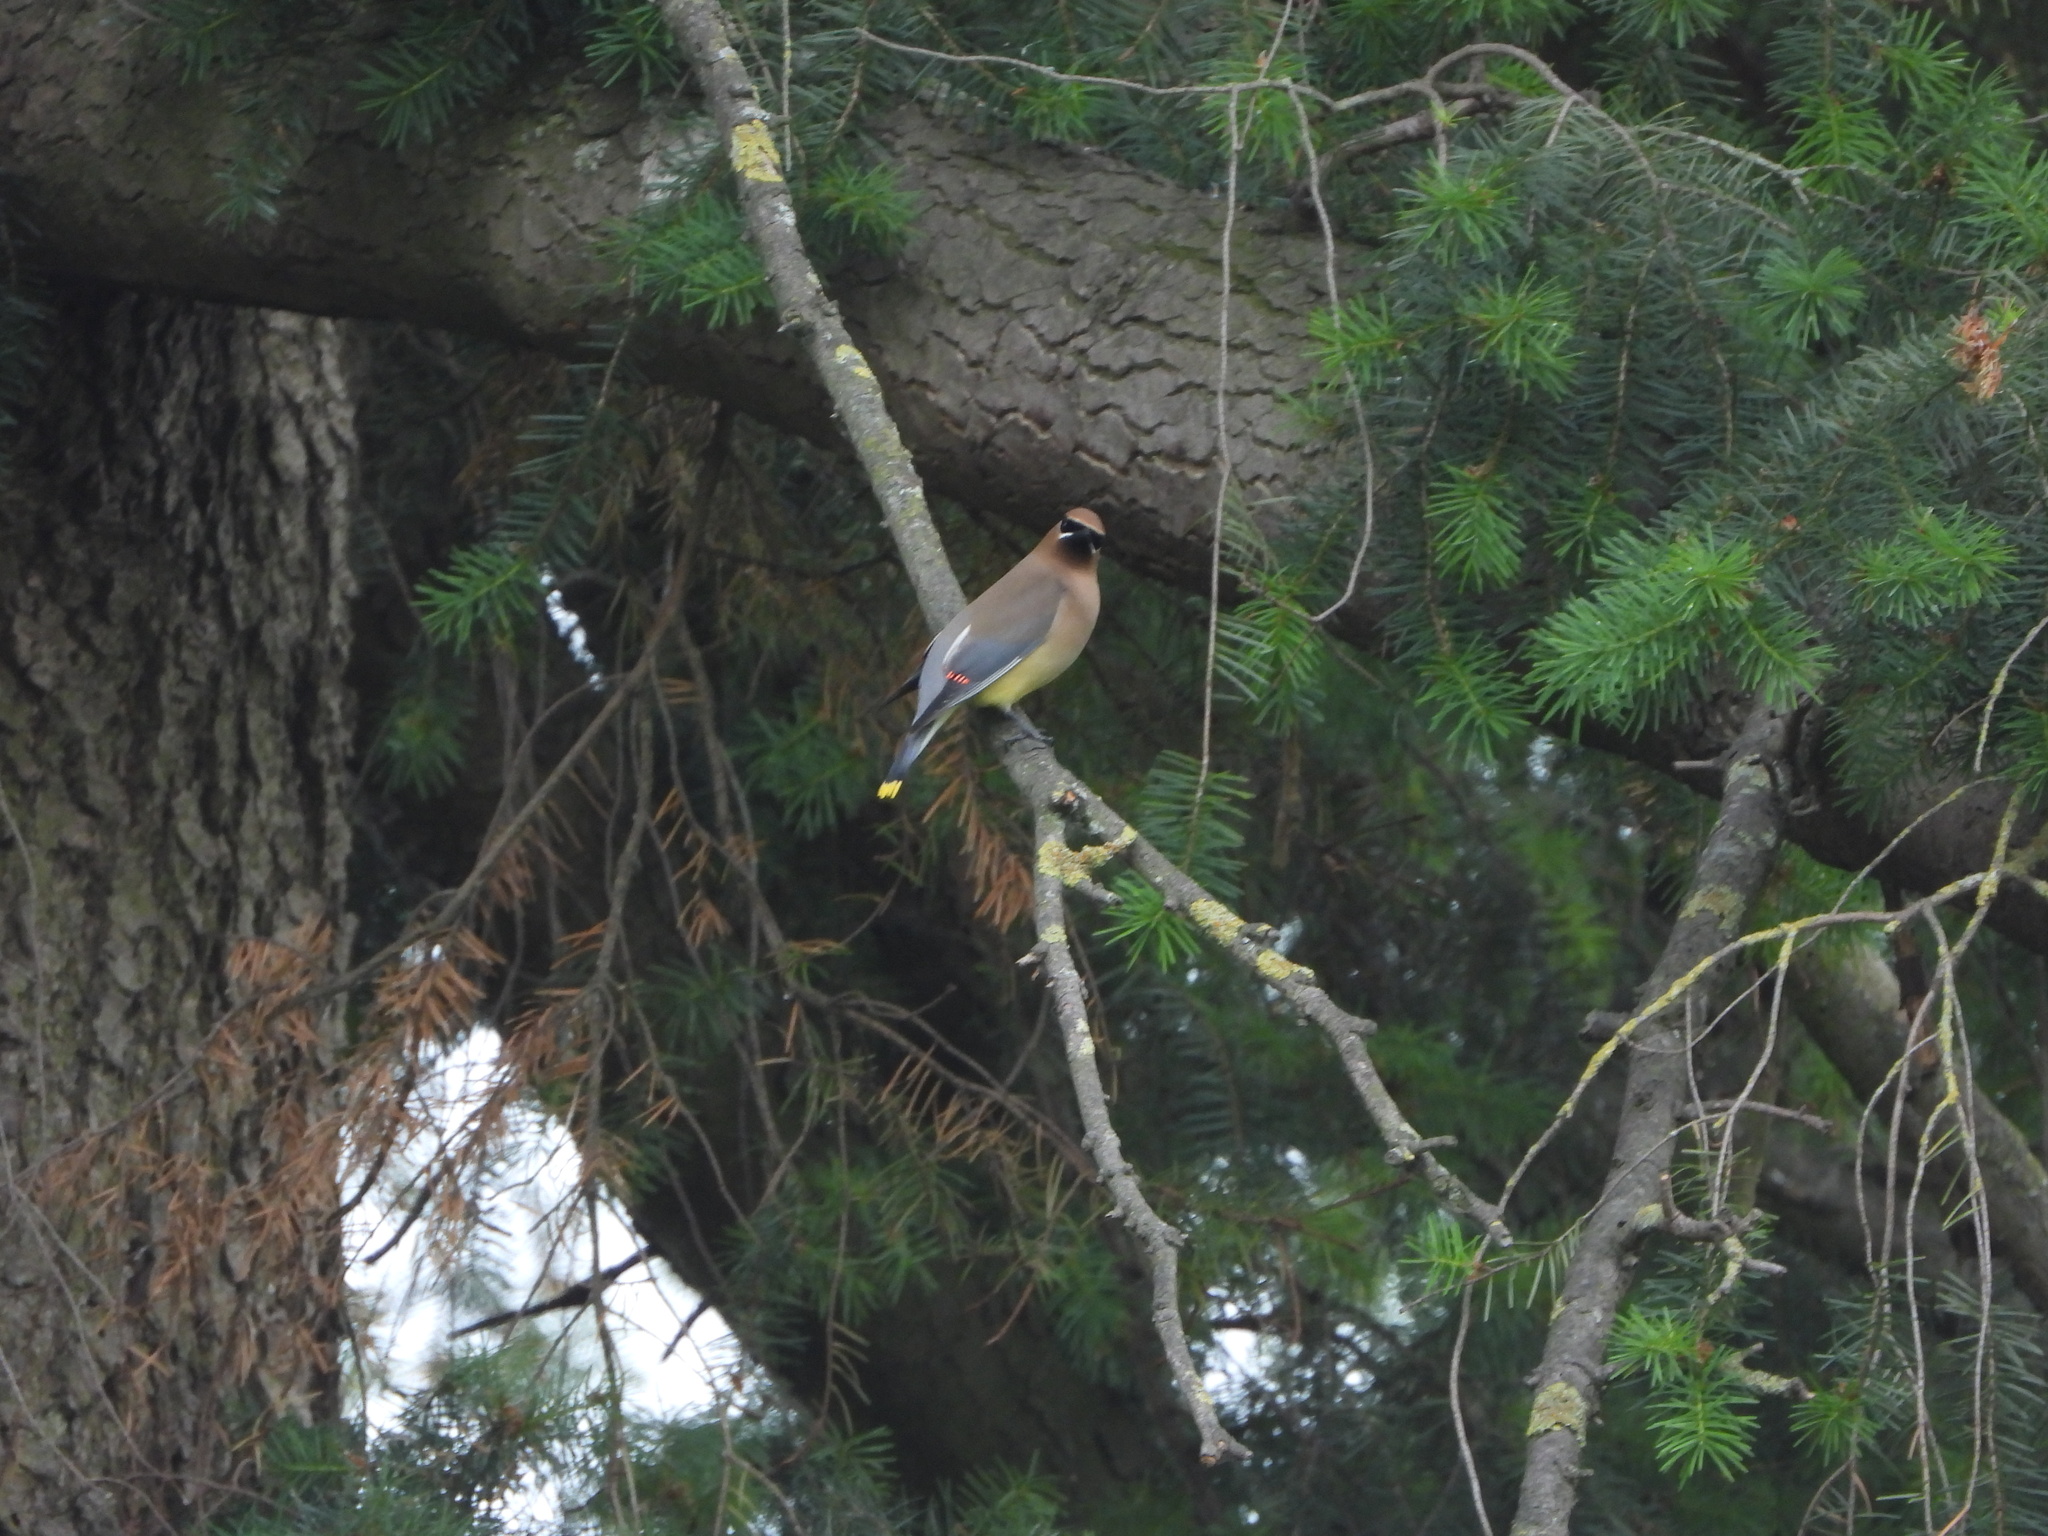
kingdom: Animalia
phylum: Chordata
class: Aves
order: Passeriformes
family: Bombycillidae
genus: Bombycilla
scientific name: Bombycilla cedrorum
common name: Cedar waxwing
